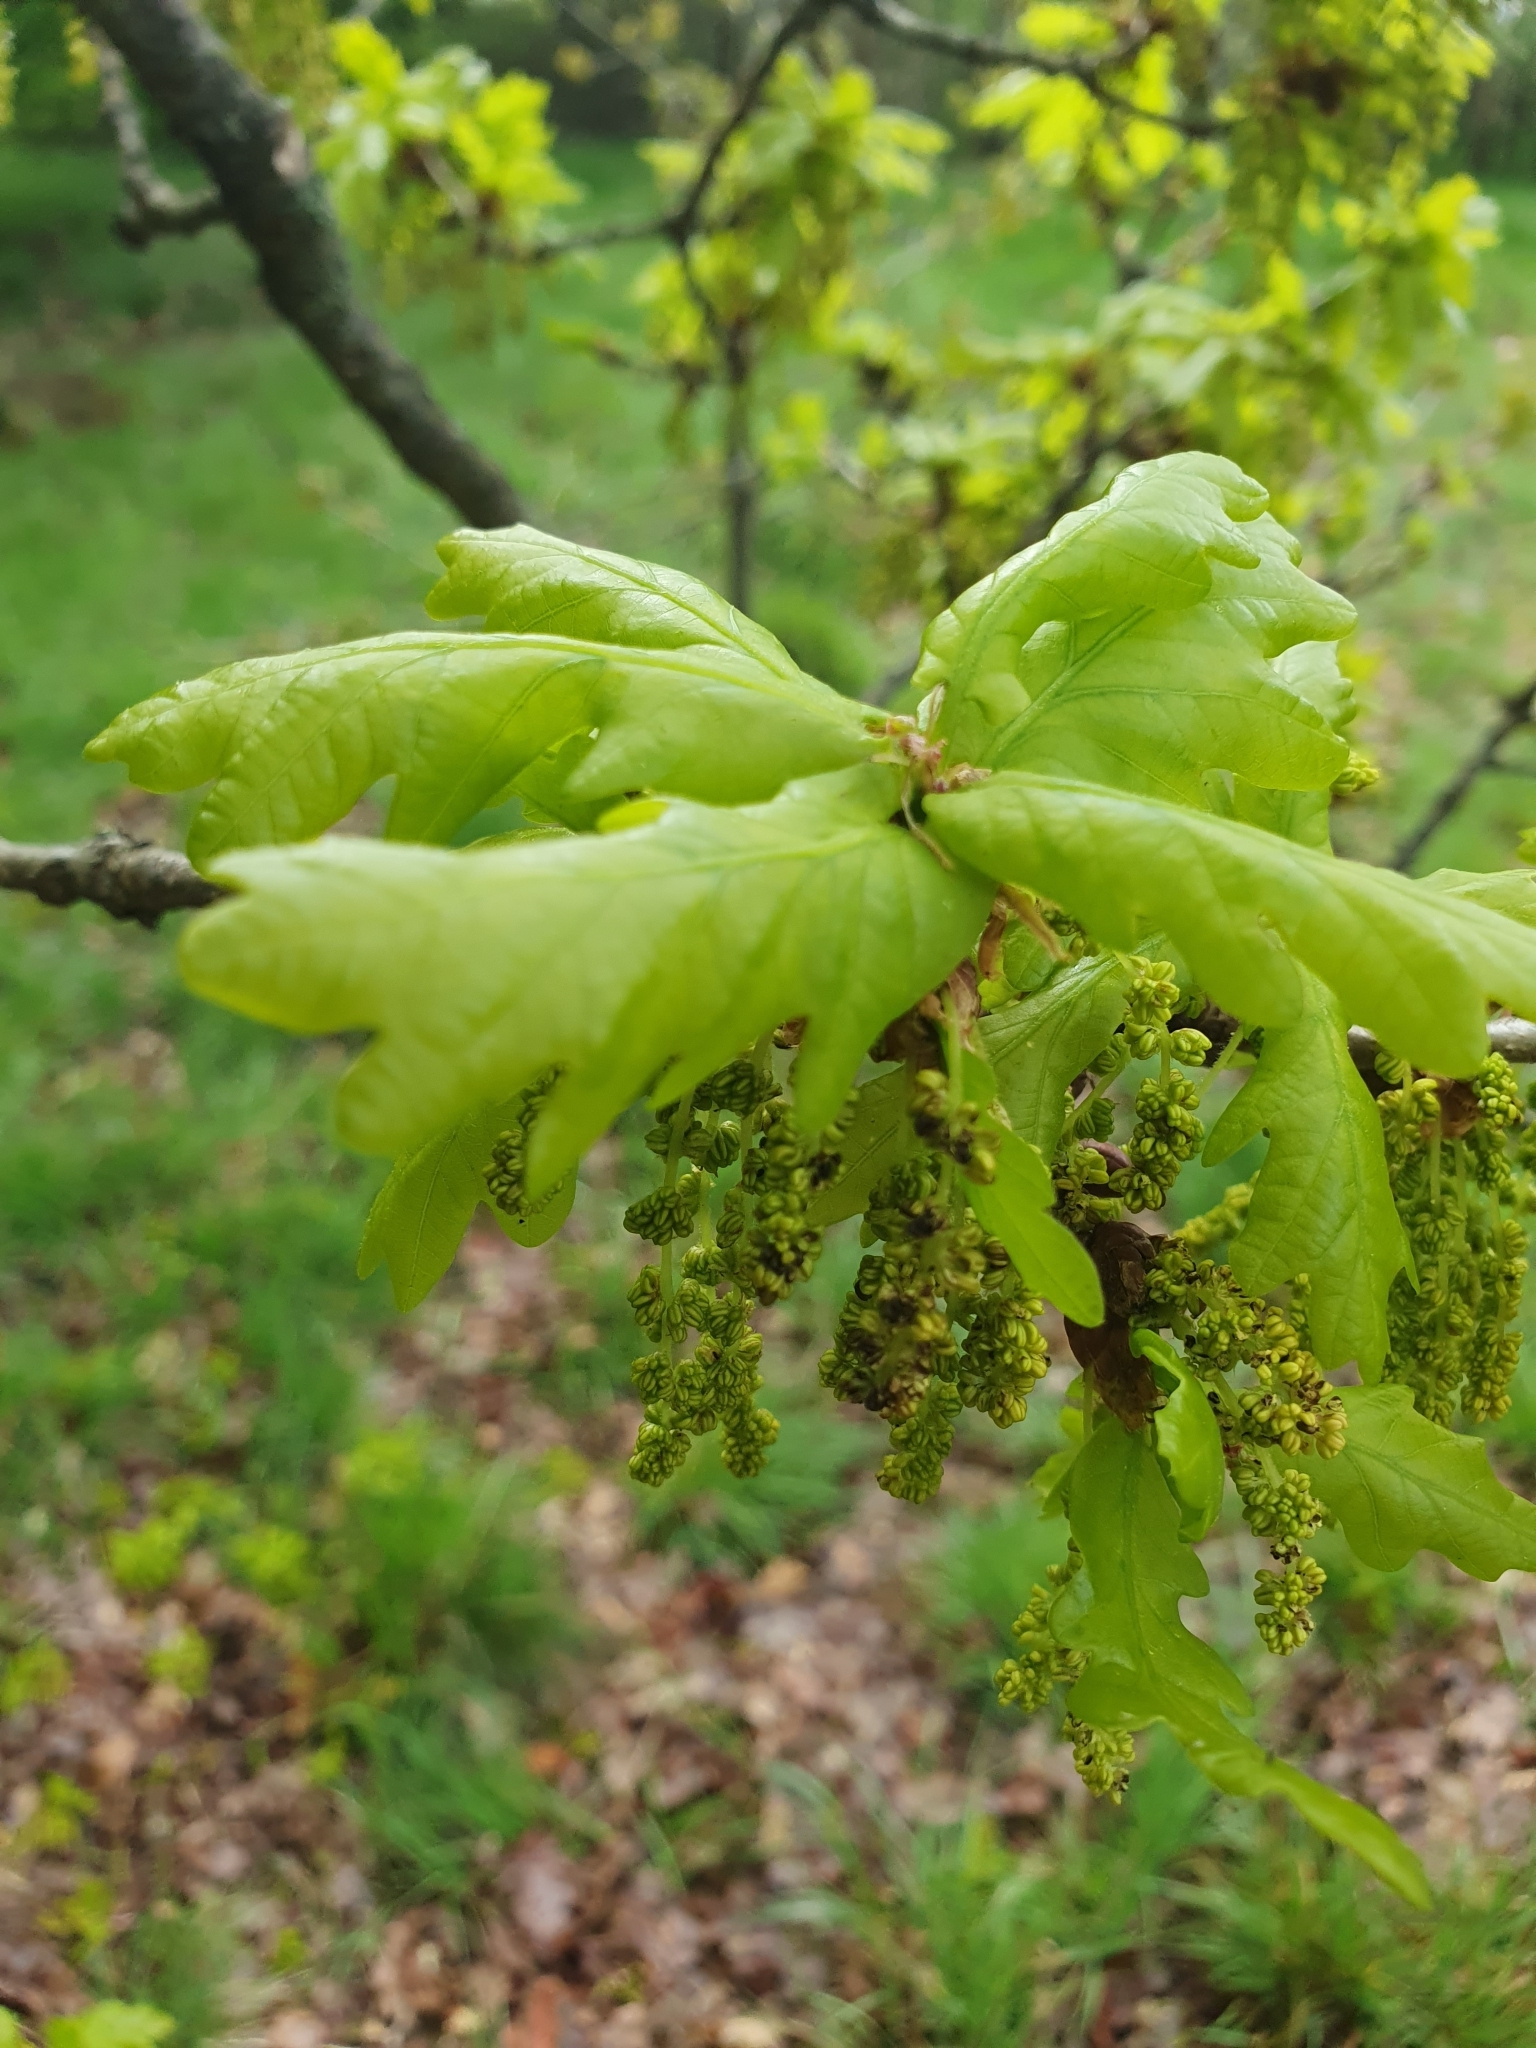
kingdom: Plantae
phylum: Tracheophyta
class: Magnoliopsida
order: Fagales
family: Fagaceae
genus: Quercus
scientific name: Quercus robur
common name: Pedunculate oak
